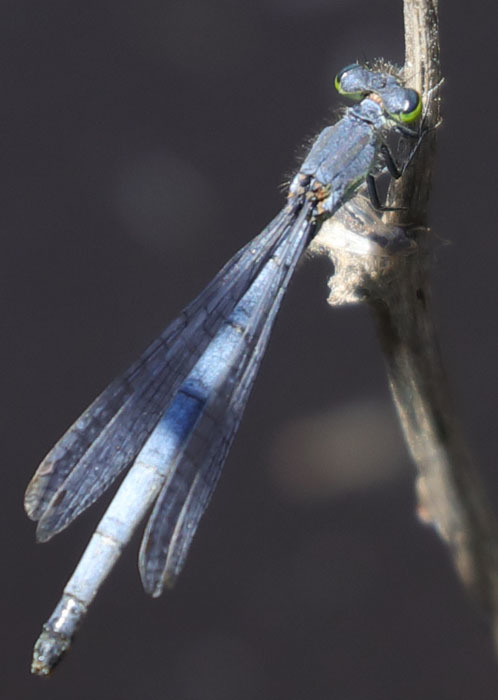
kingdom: Animalia
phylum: Arthropoda
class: Insecta
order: Odonata
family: Coenagrionidae
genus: Ischnura
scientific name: Ischnura perparva
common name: Western forktail
